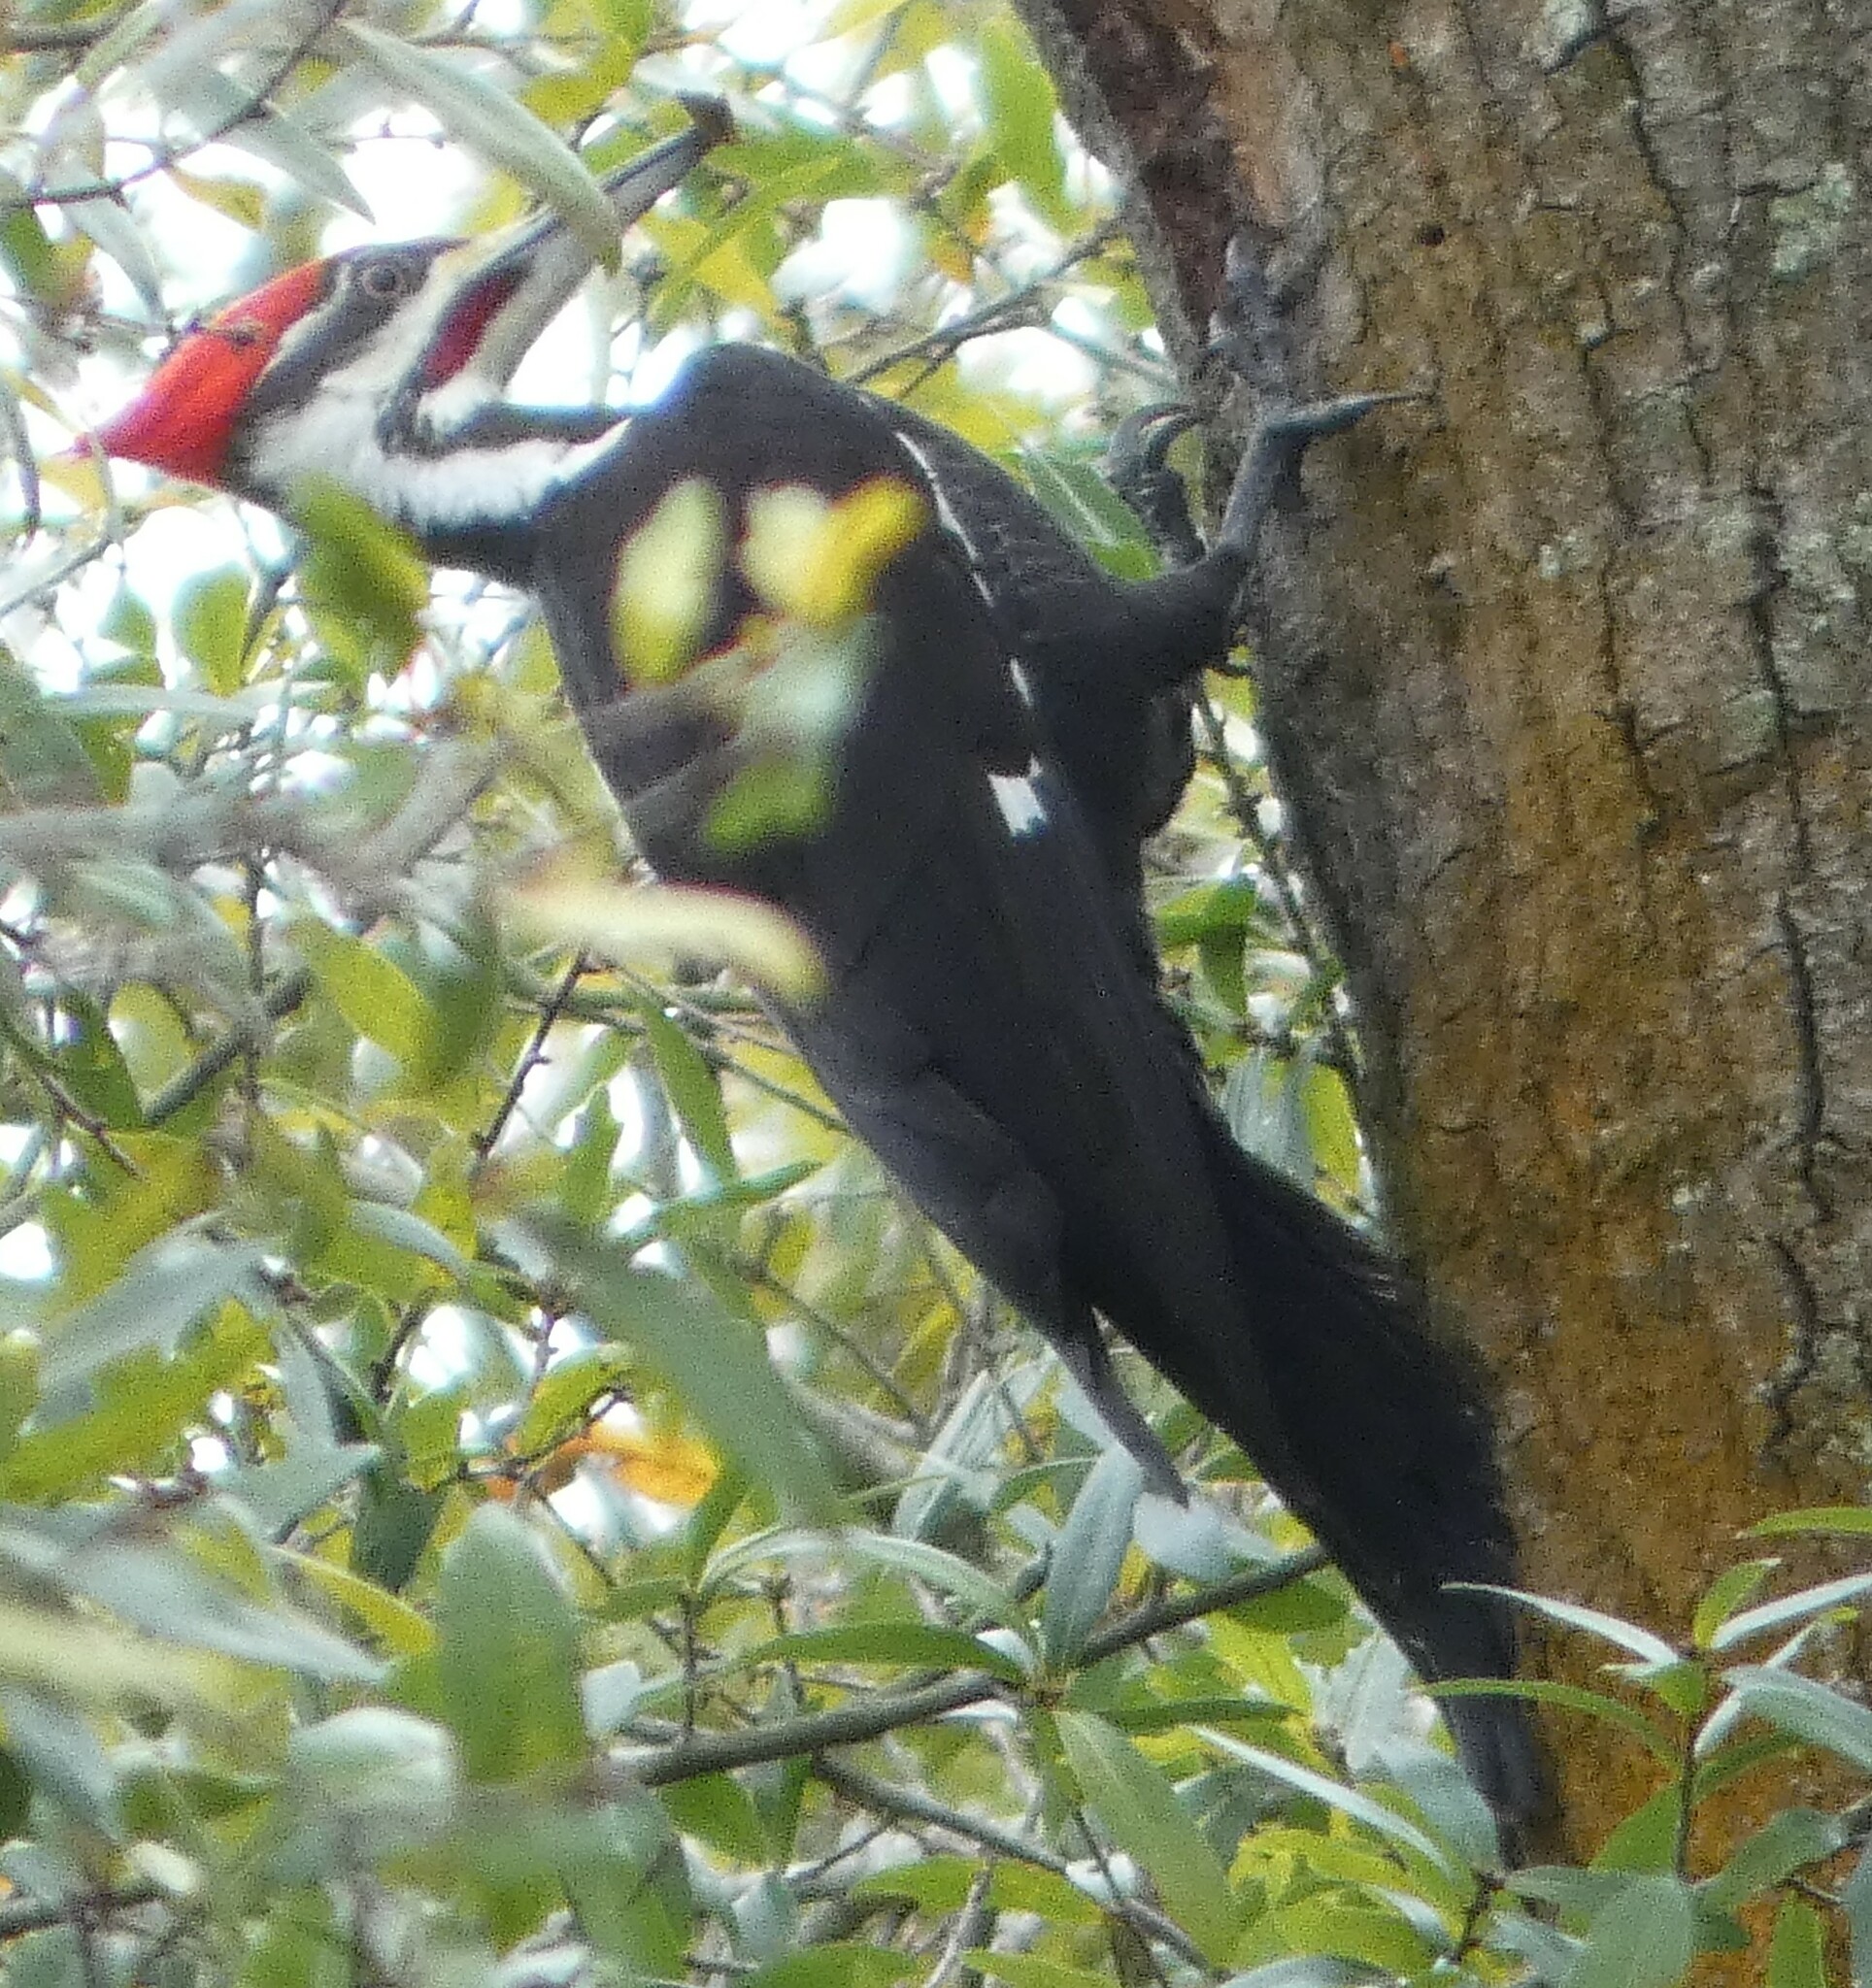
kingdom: Animalia
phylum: Chordata
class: Aves
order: Piciformes
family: Picidae
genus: Dryocopus
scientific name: Dryocopus pileatus
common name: Pileated woodpecker
